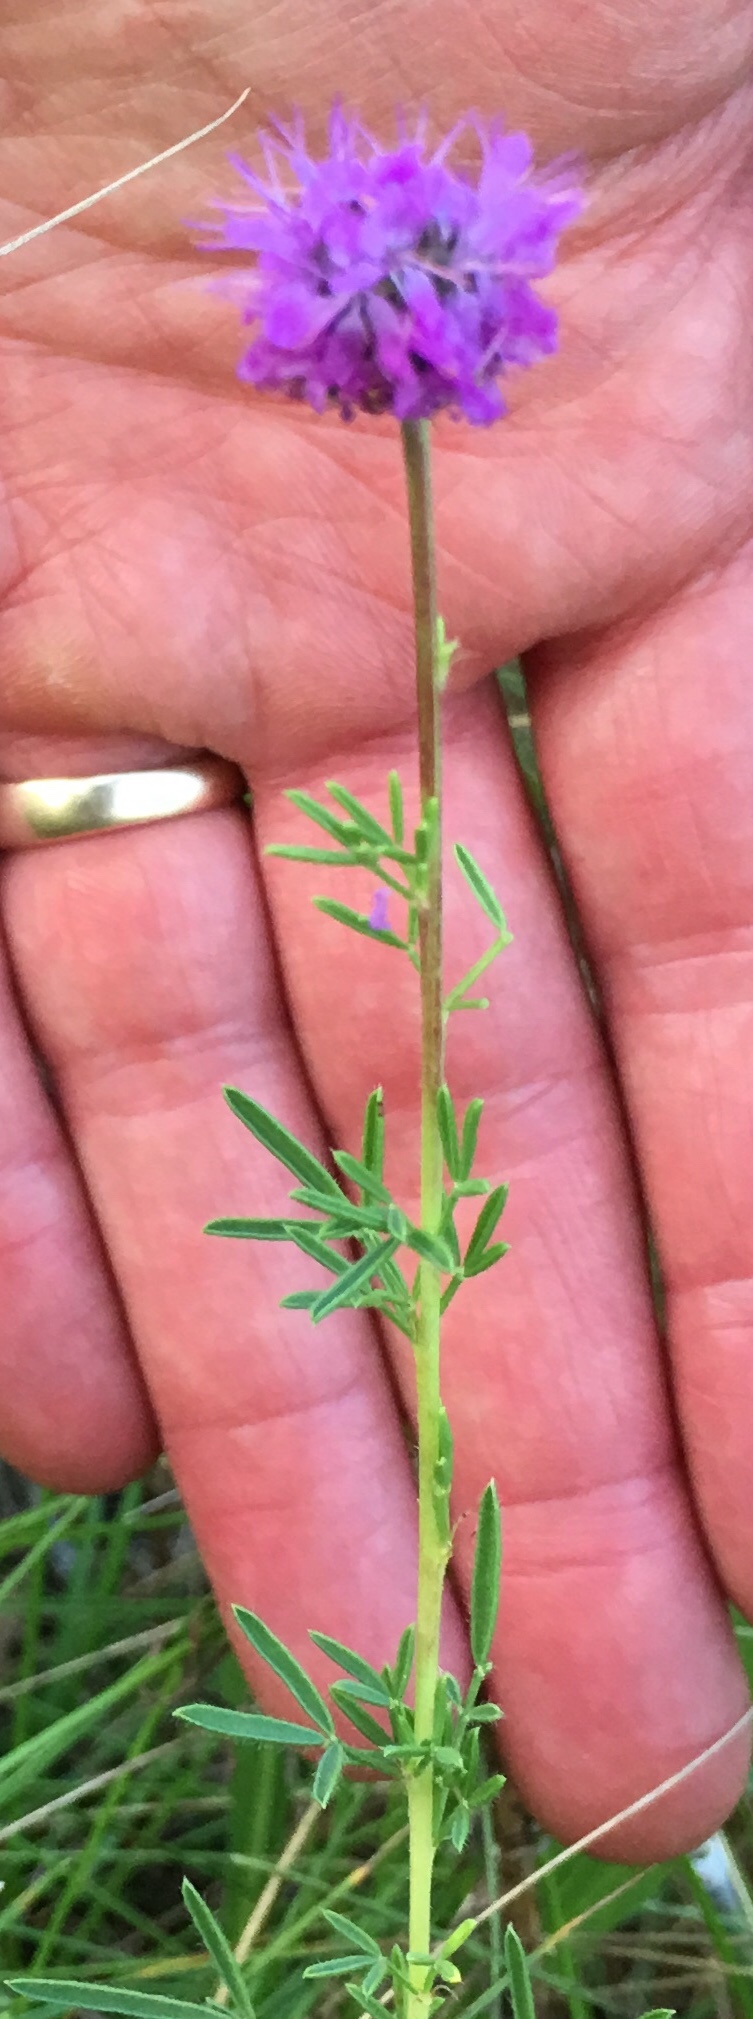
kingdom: Plantae
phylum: Tracheophyta
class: Magnoliopsida
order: Fabales
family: Fabaceae
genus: Dalea
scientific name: Dalea purpurea
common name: Purple prairie-clover
